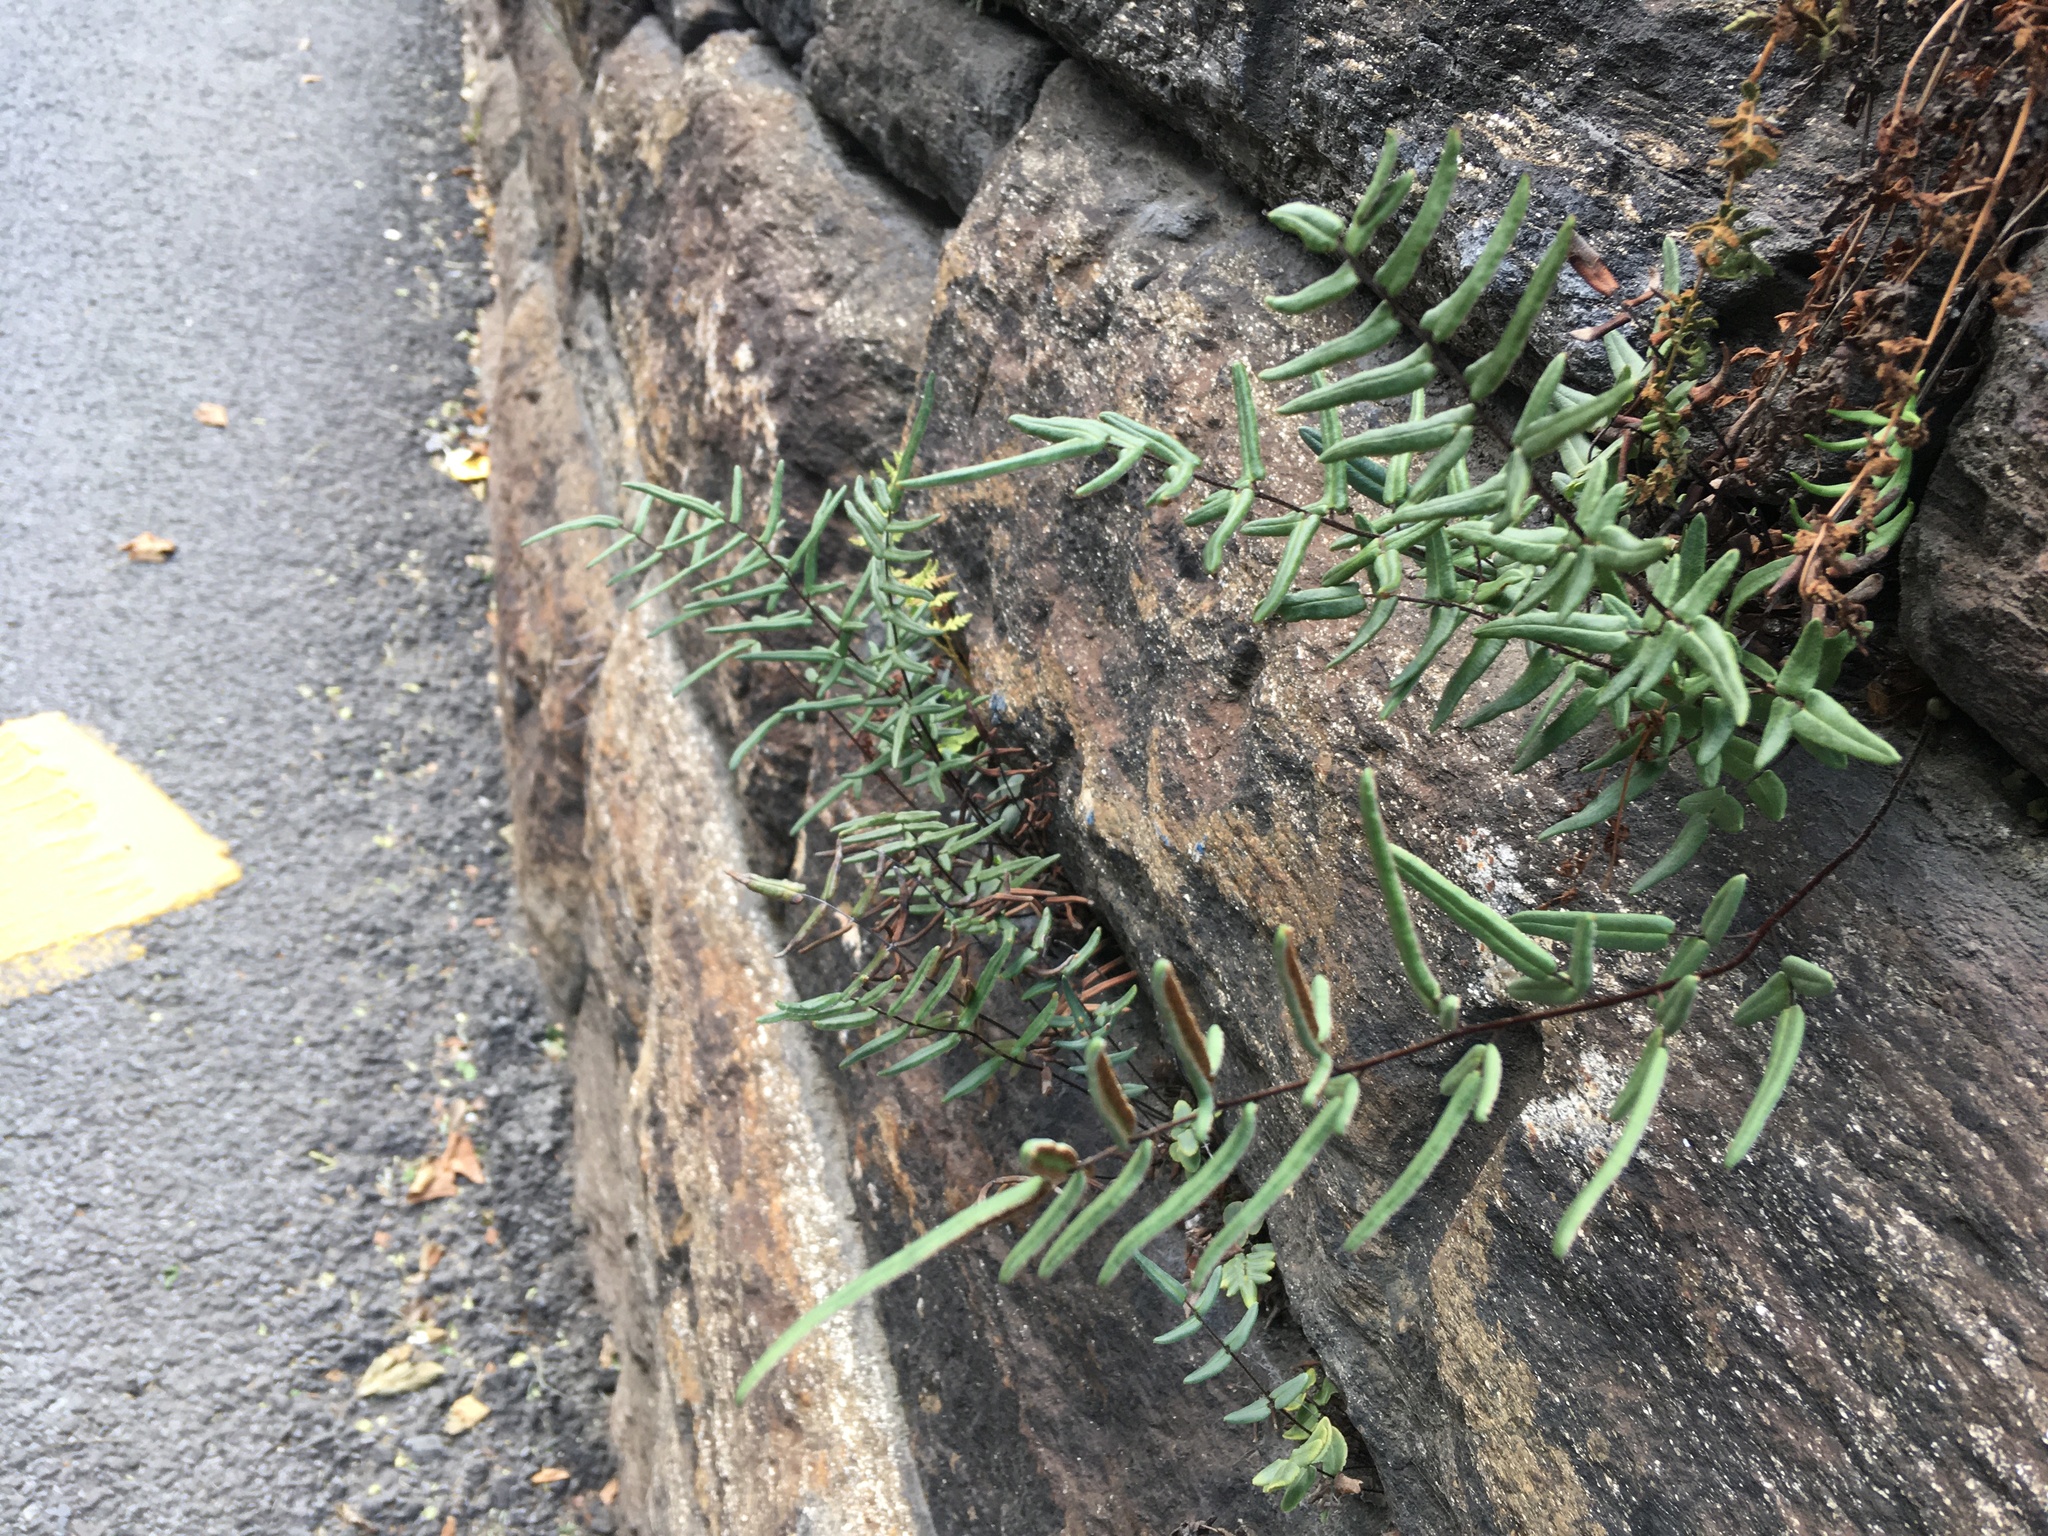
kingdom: Plantae
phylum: Tracheophyta
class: Polypodiopsida
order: Polypodiales
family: Pteridaceae
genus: Pellaea
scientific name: Pellaea atropurpurea
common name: Hairy cliffbrake
